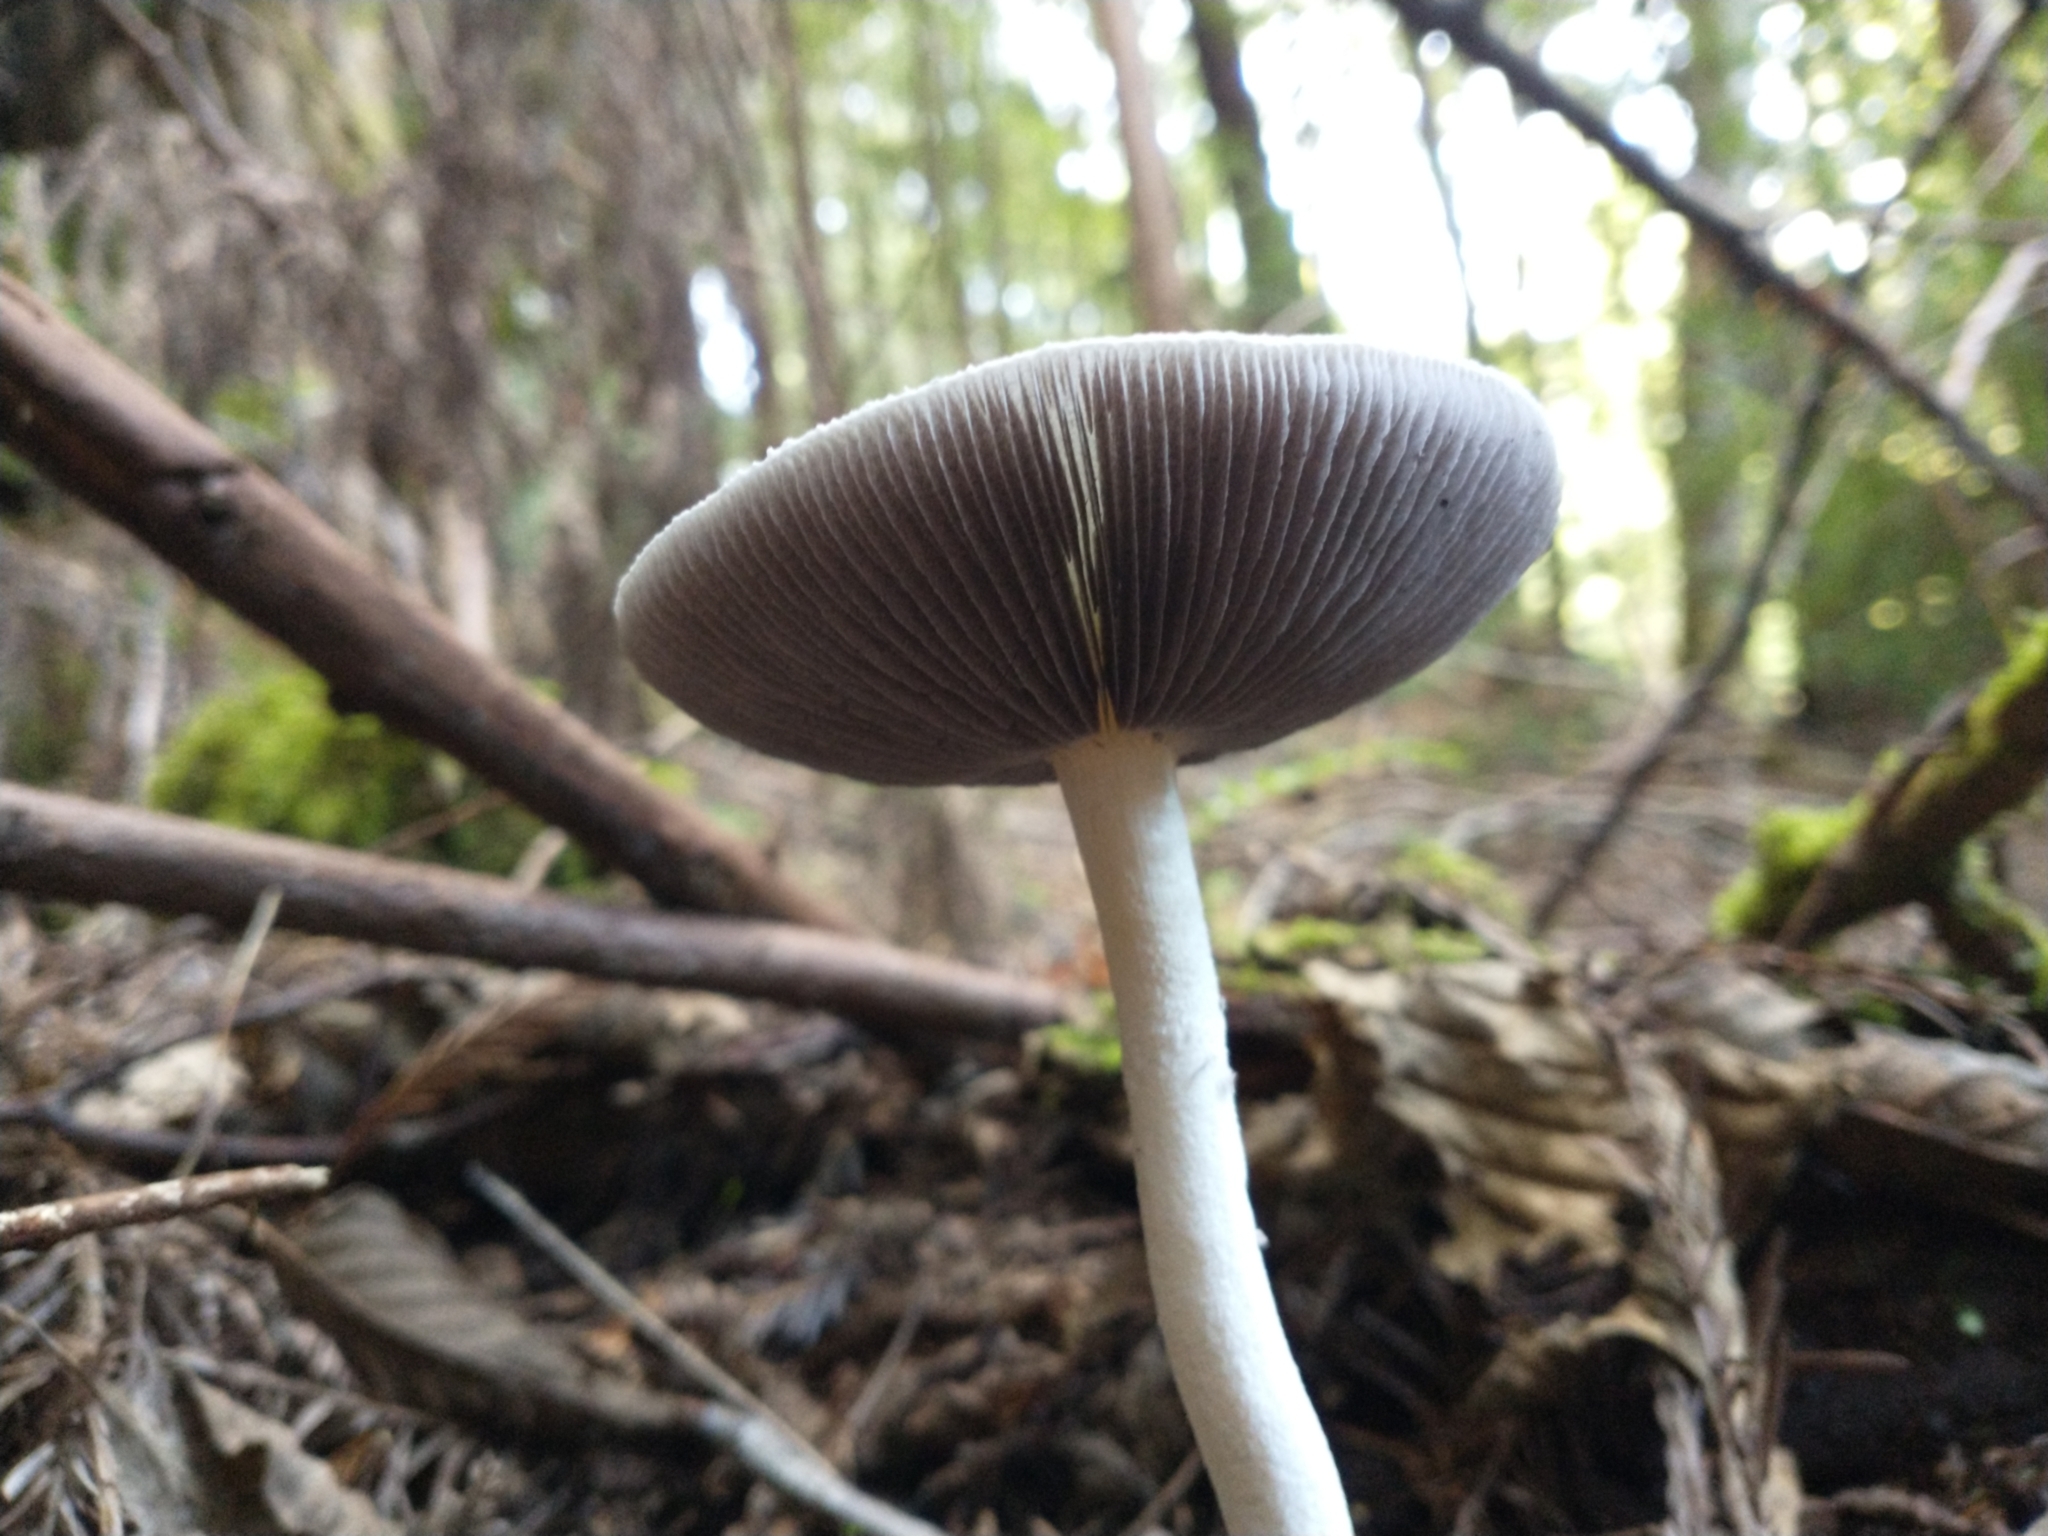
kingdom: Fungi
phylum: Basidiomycota
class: Agaricomycetes
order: Agaricales
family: Strophariaceae
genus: Stropharia
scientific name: Stropharia ambigua
